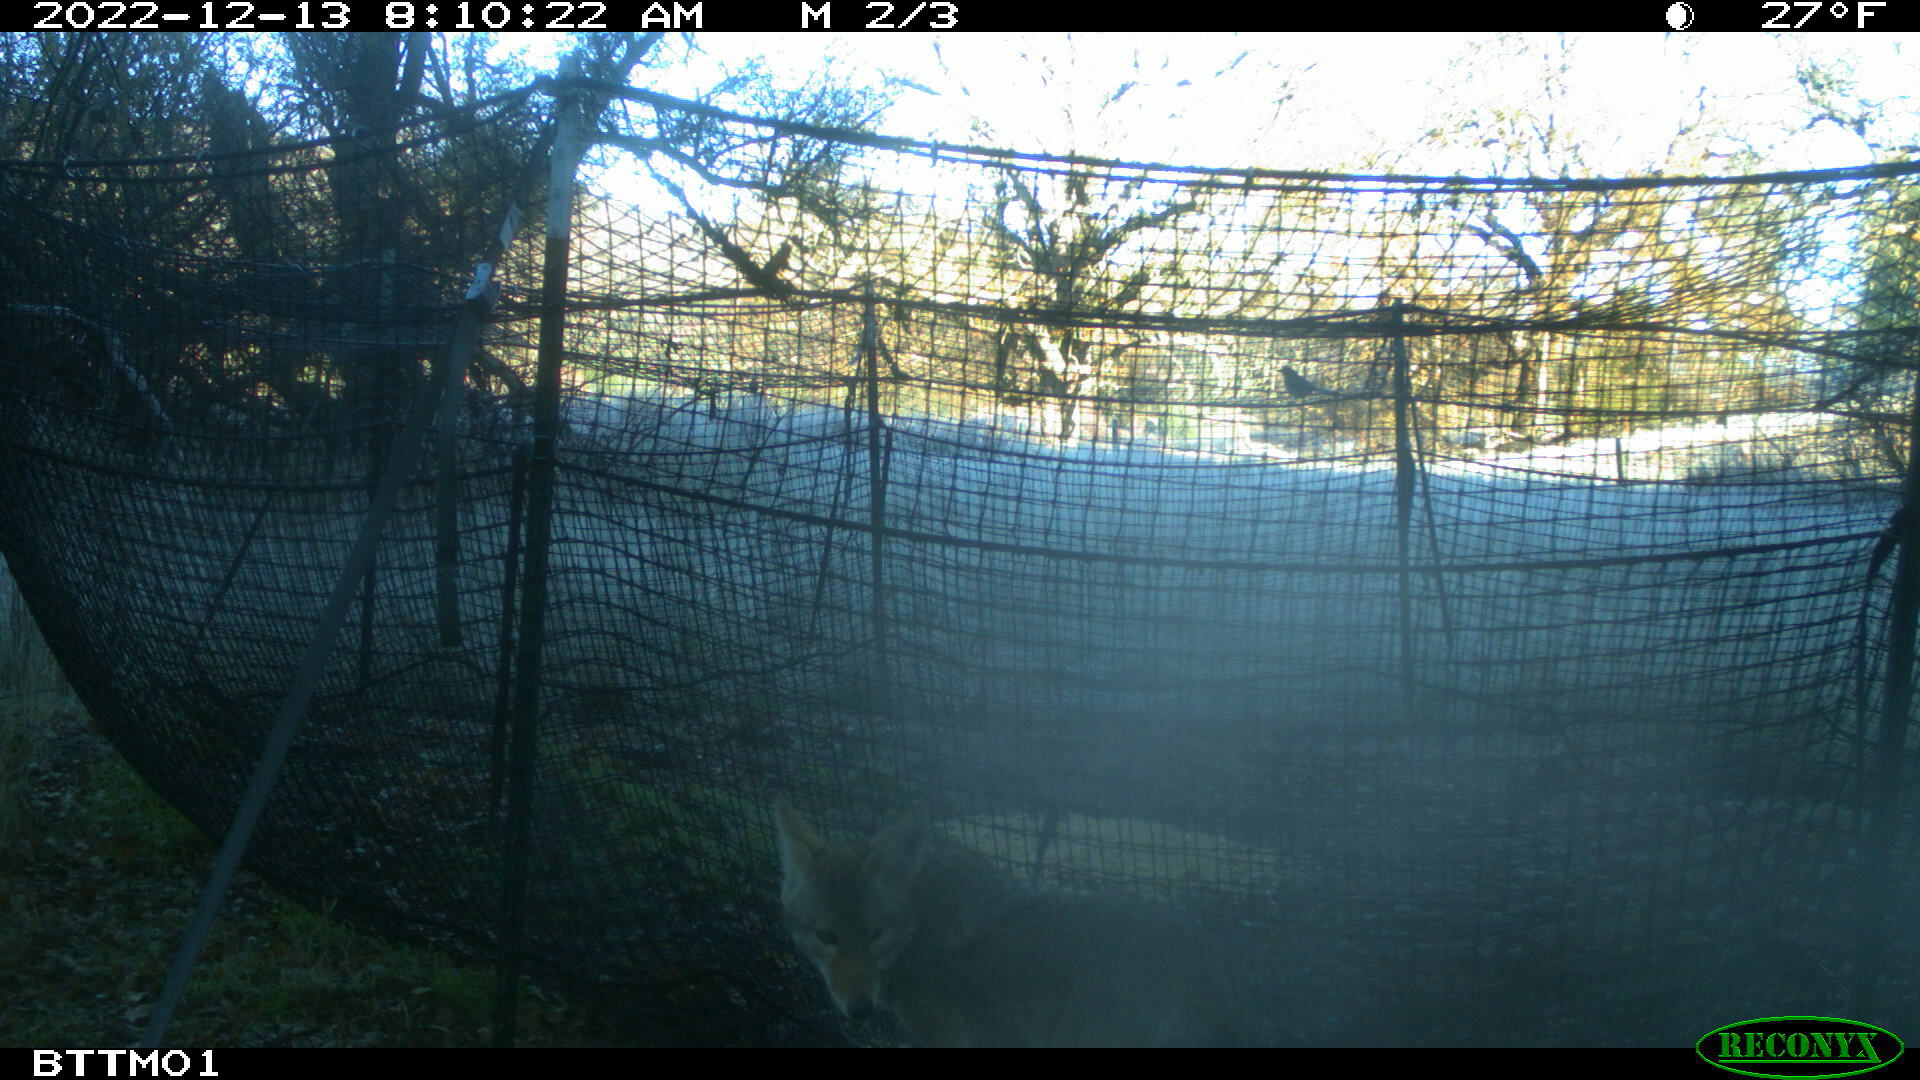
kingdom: Animalia
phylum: Chordata
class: Mammalia
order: Carnivora
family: Canidae
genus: Canis
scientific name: Canis latrans
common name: Coyote
